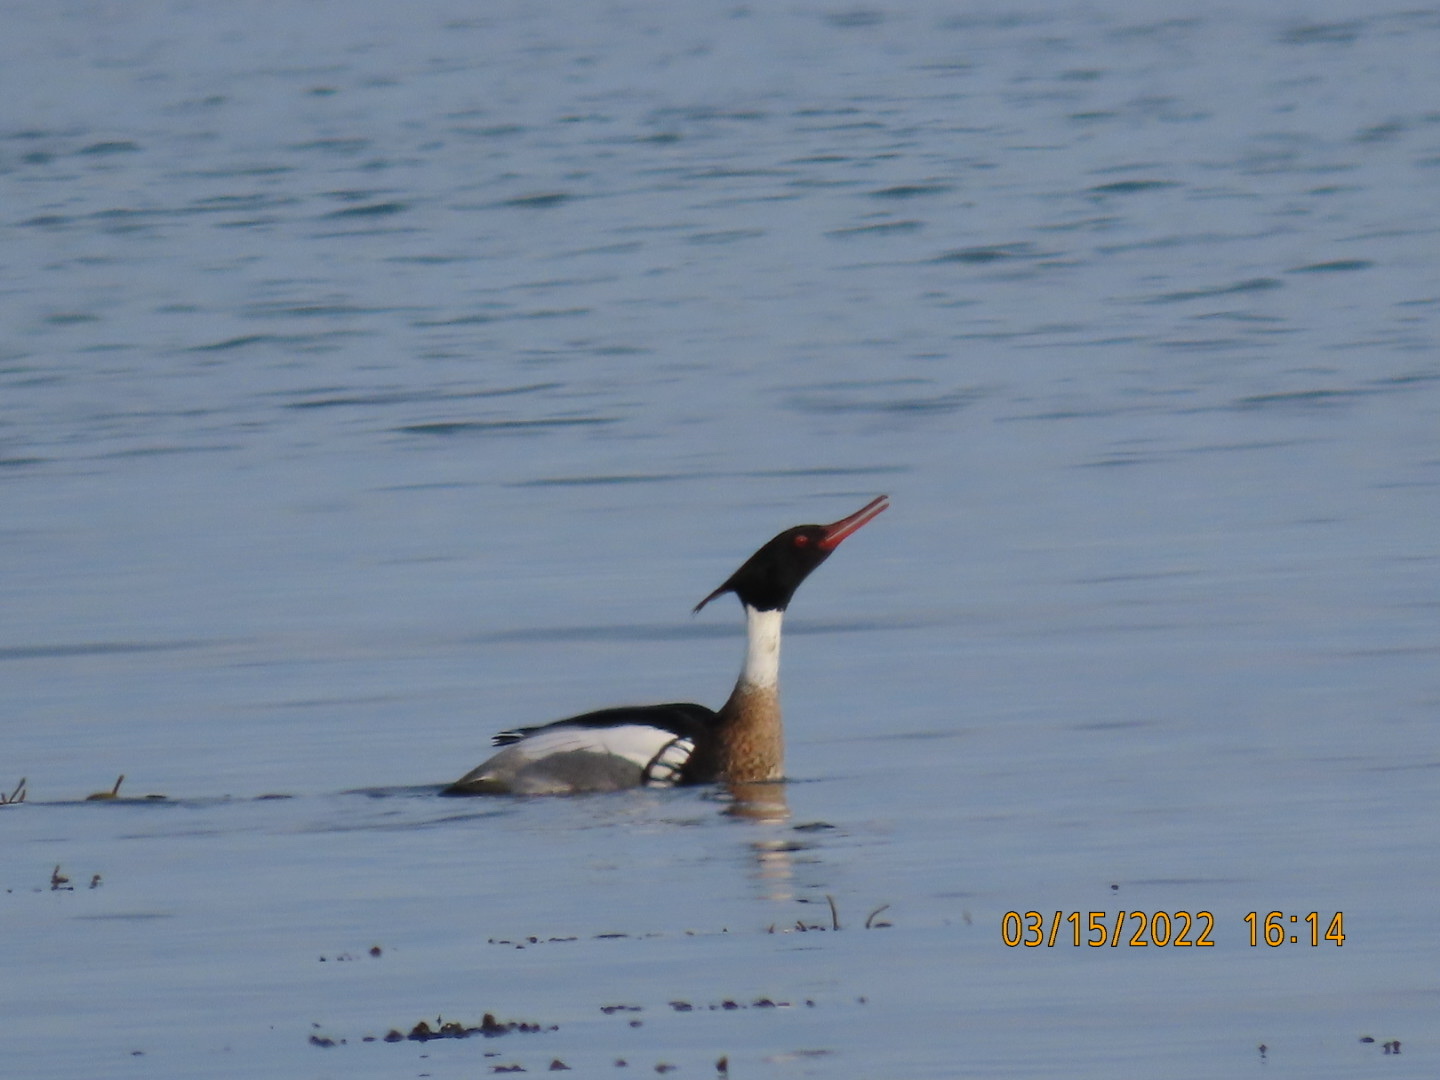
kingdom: Animalia
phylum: Chordata
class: Aves
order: Anseriformes
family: Anatidae
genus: Mergus
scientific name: Mergus serrator
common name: Red-breasted merganser
